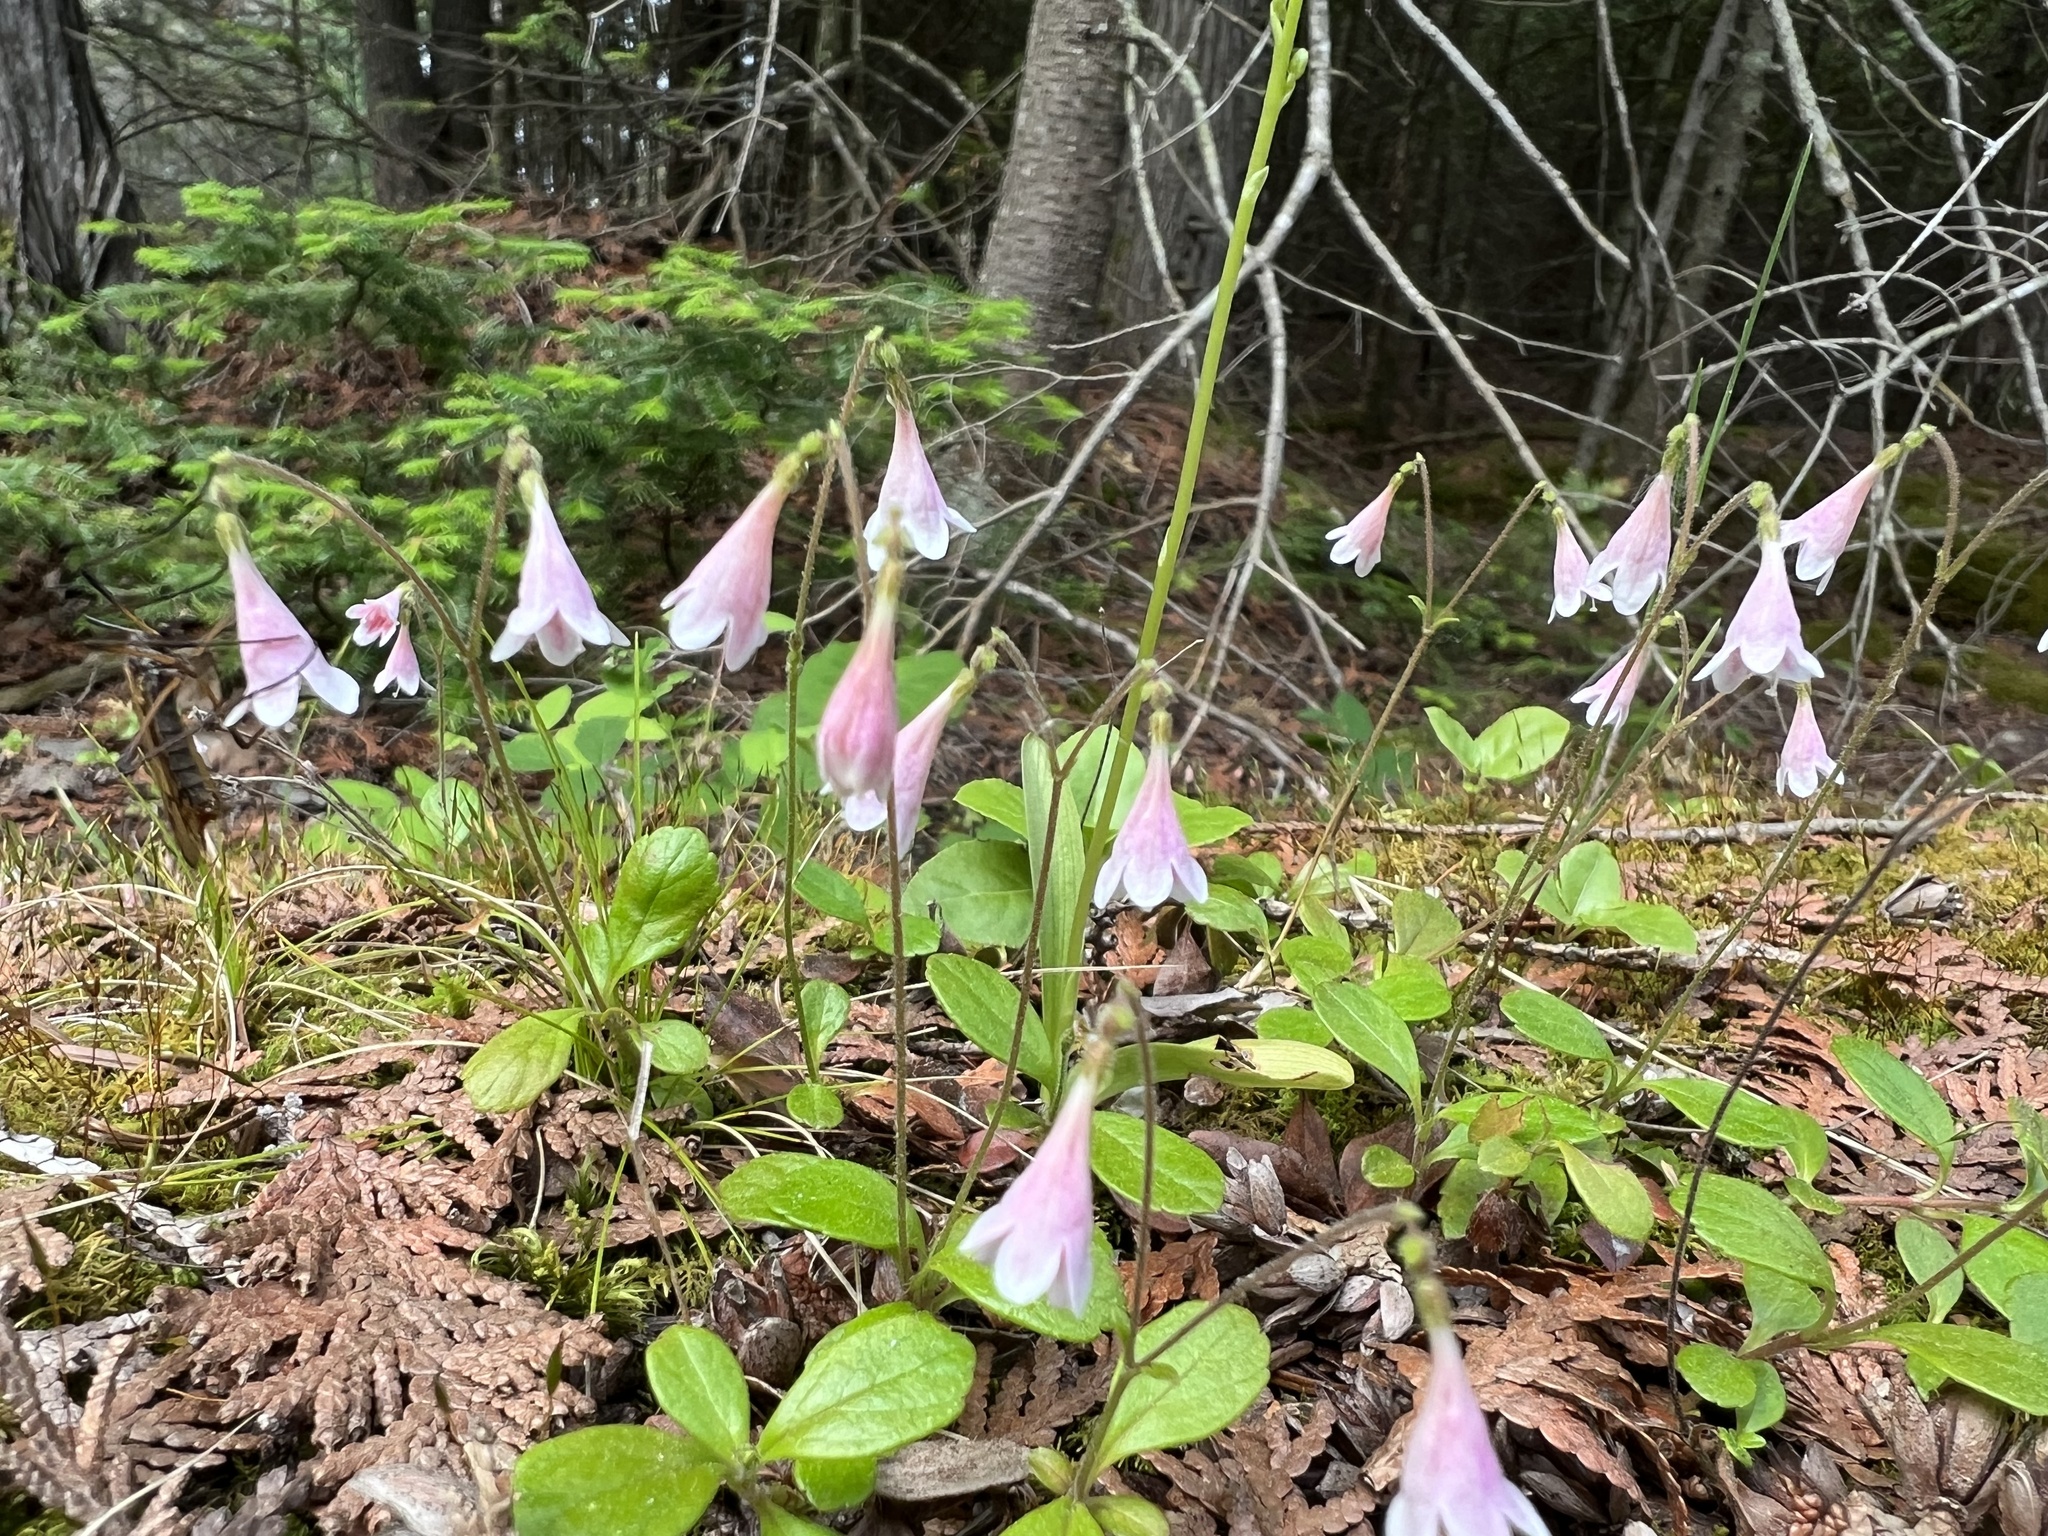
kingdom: Plantae
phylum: Tracheophyta
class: Magnoliopsida
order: Dipsacales
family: Caprifoliaceae
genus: Linnaea
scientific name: Linnaea borealis
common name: Twinflower
